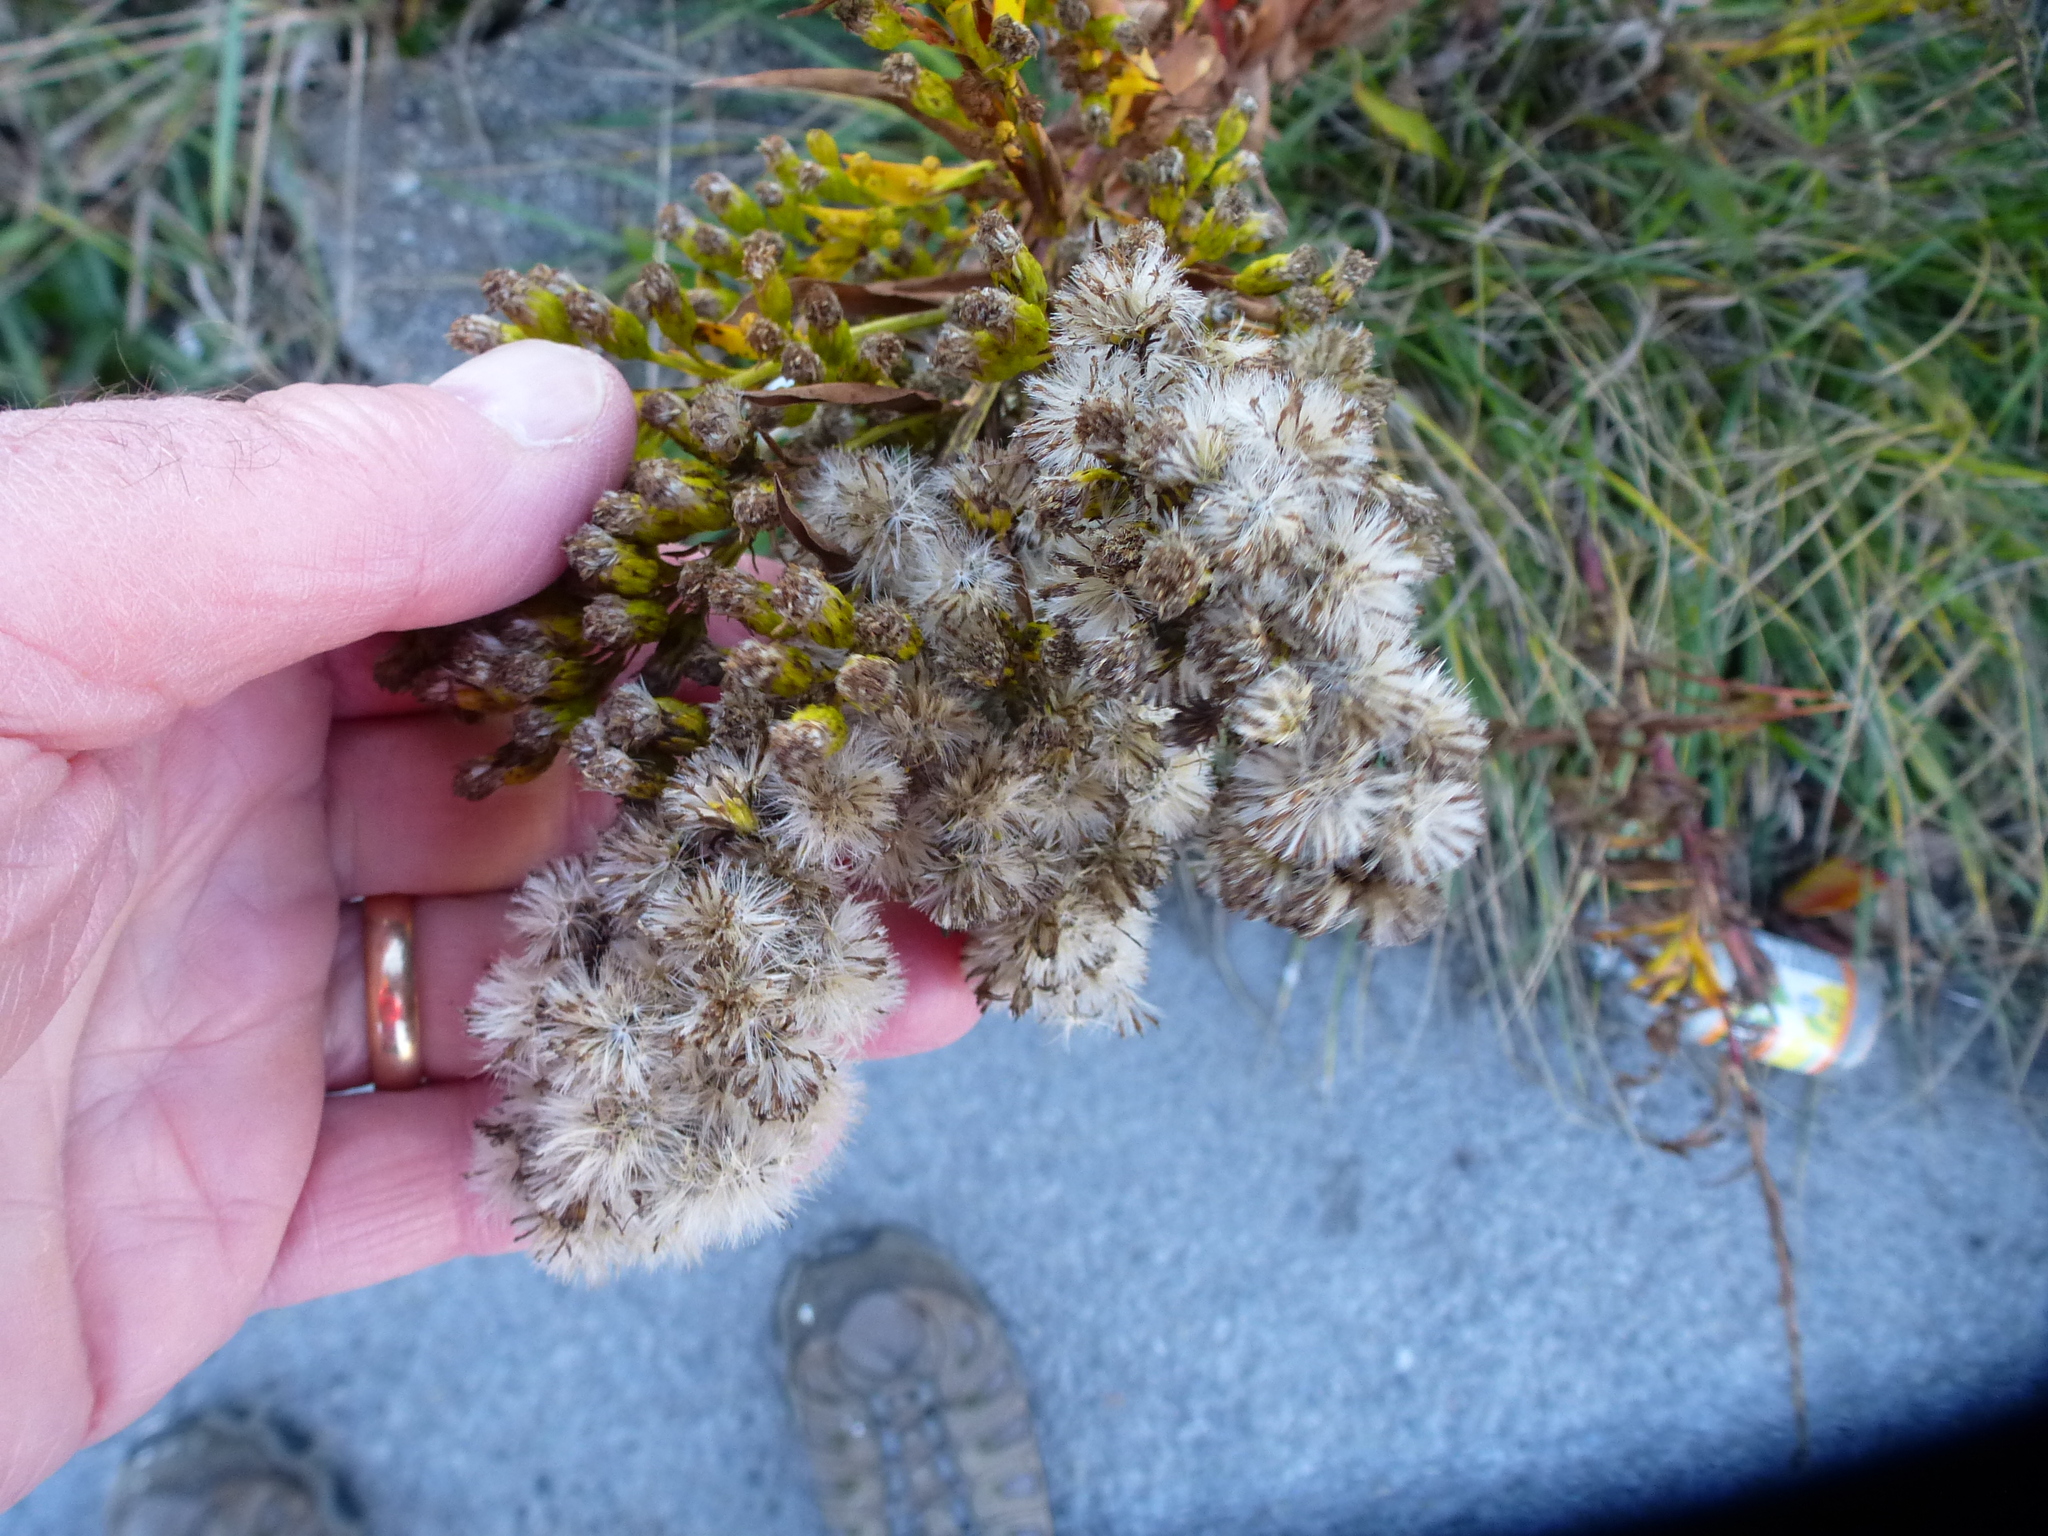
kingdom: Plantae
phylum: Tracheophyta
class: Magnoliopsida
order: Asterales
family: Asteraceae
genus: Solidago
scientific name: Solidago sempervirens
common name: Salt-marsh goldenrod
